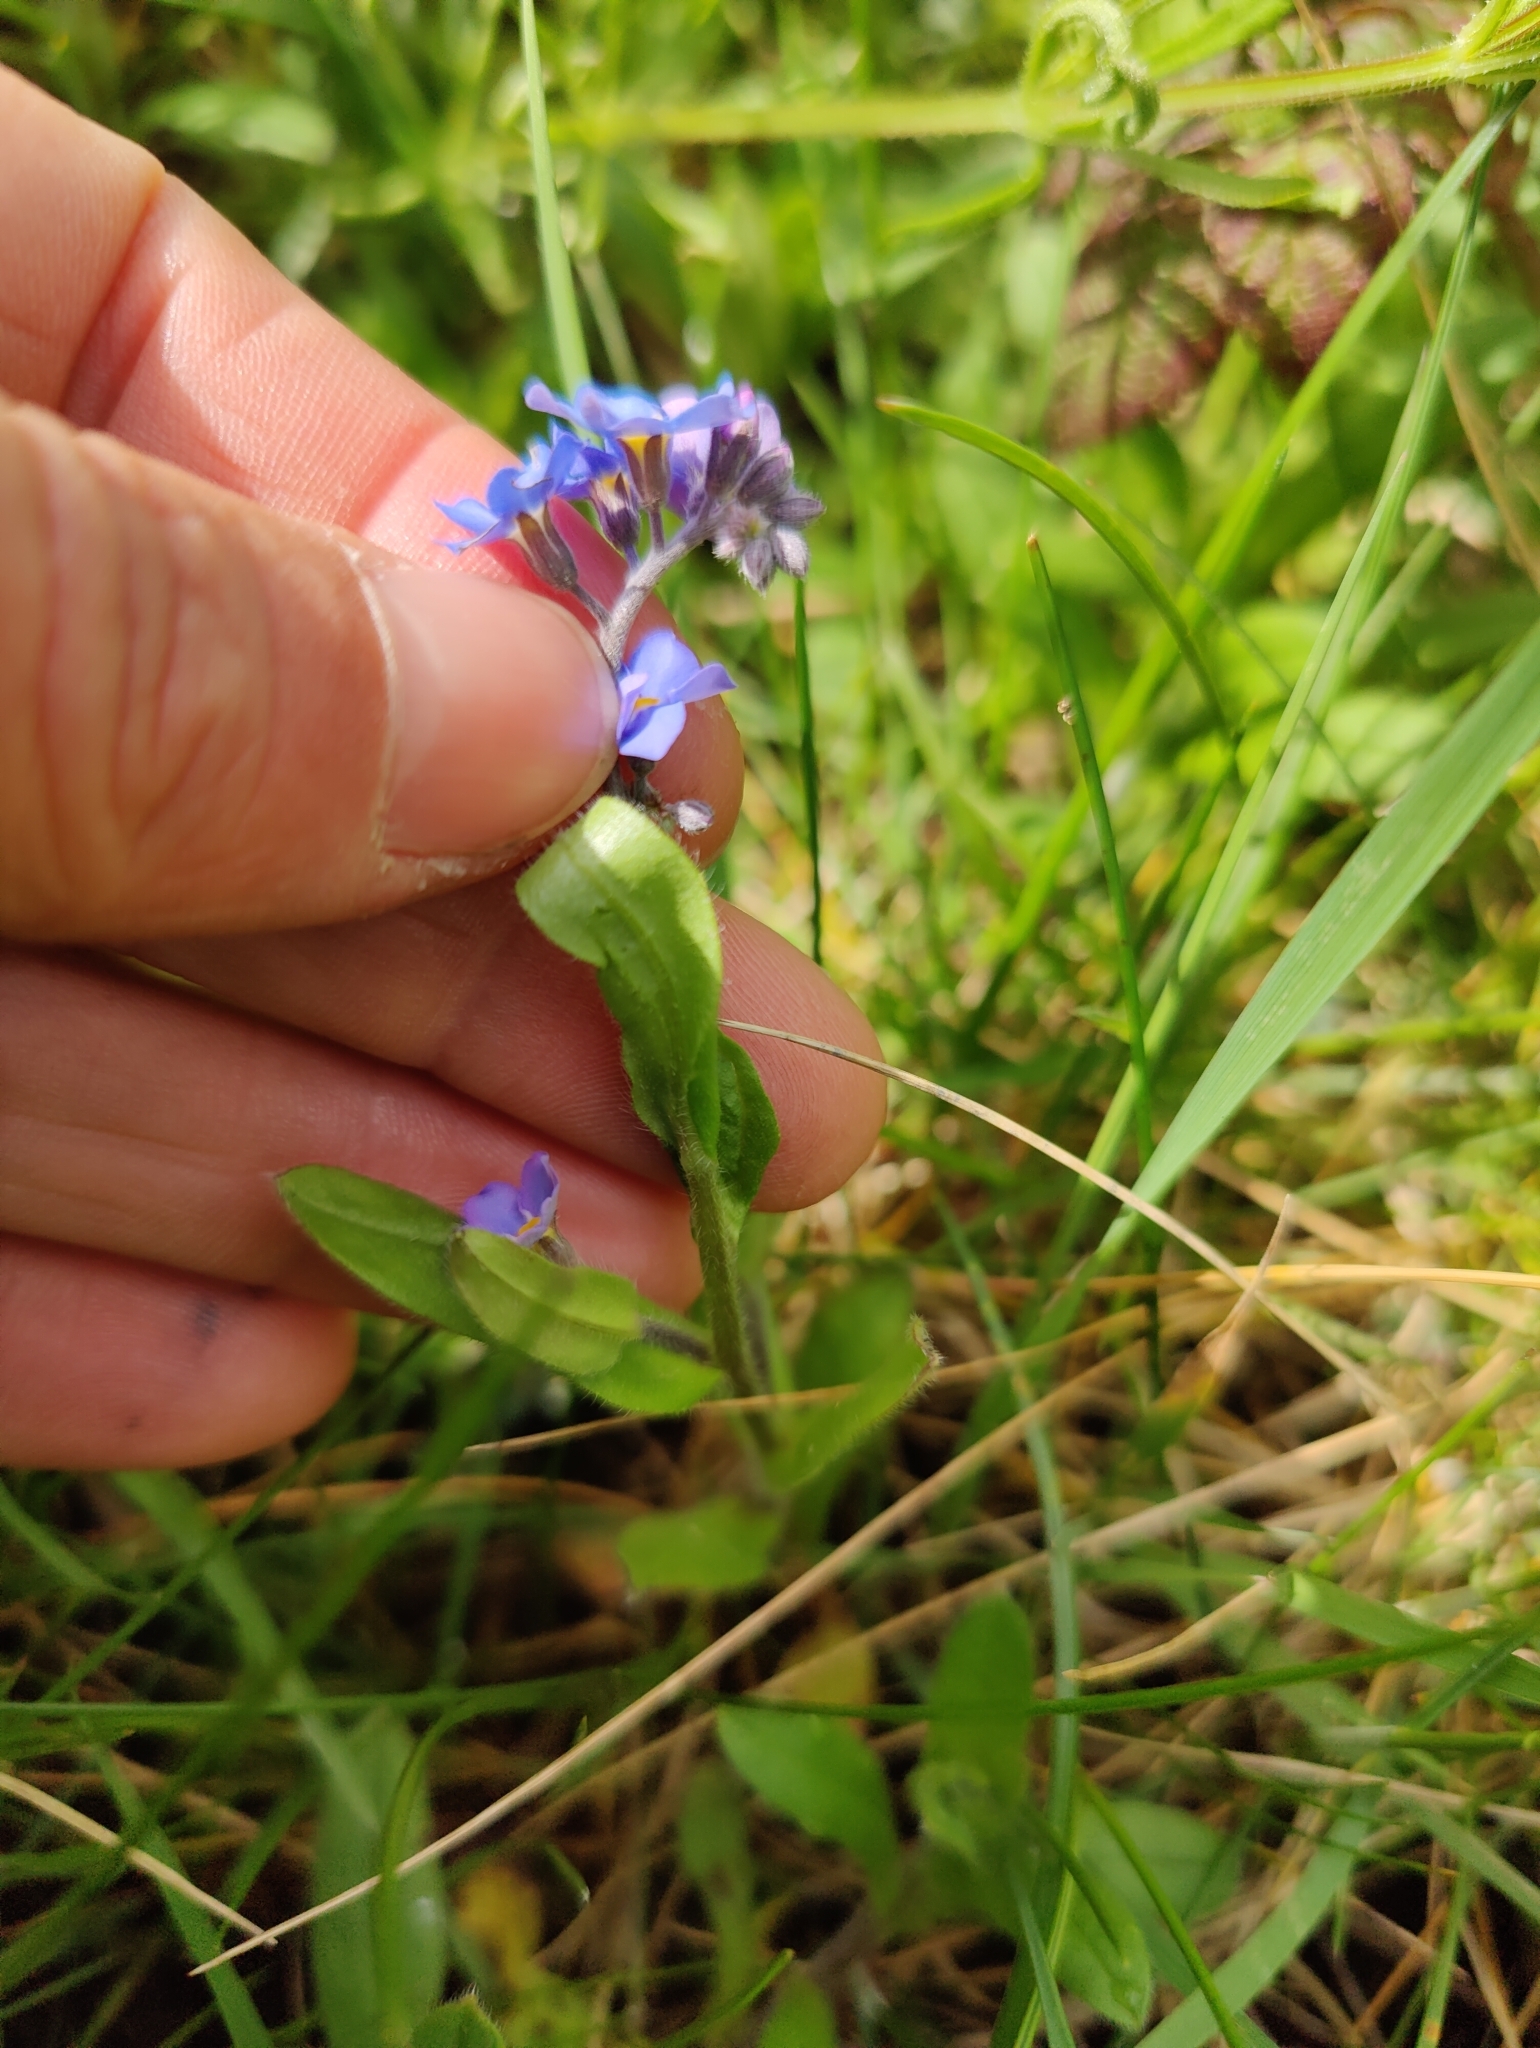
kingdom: Plantae
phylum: Tracheophyta
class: Magnoliopsida
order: Boraginales
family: Boraginaceae
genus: Myosotis
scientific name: Myosotis sylvatica
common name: Wood forget-me-not
